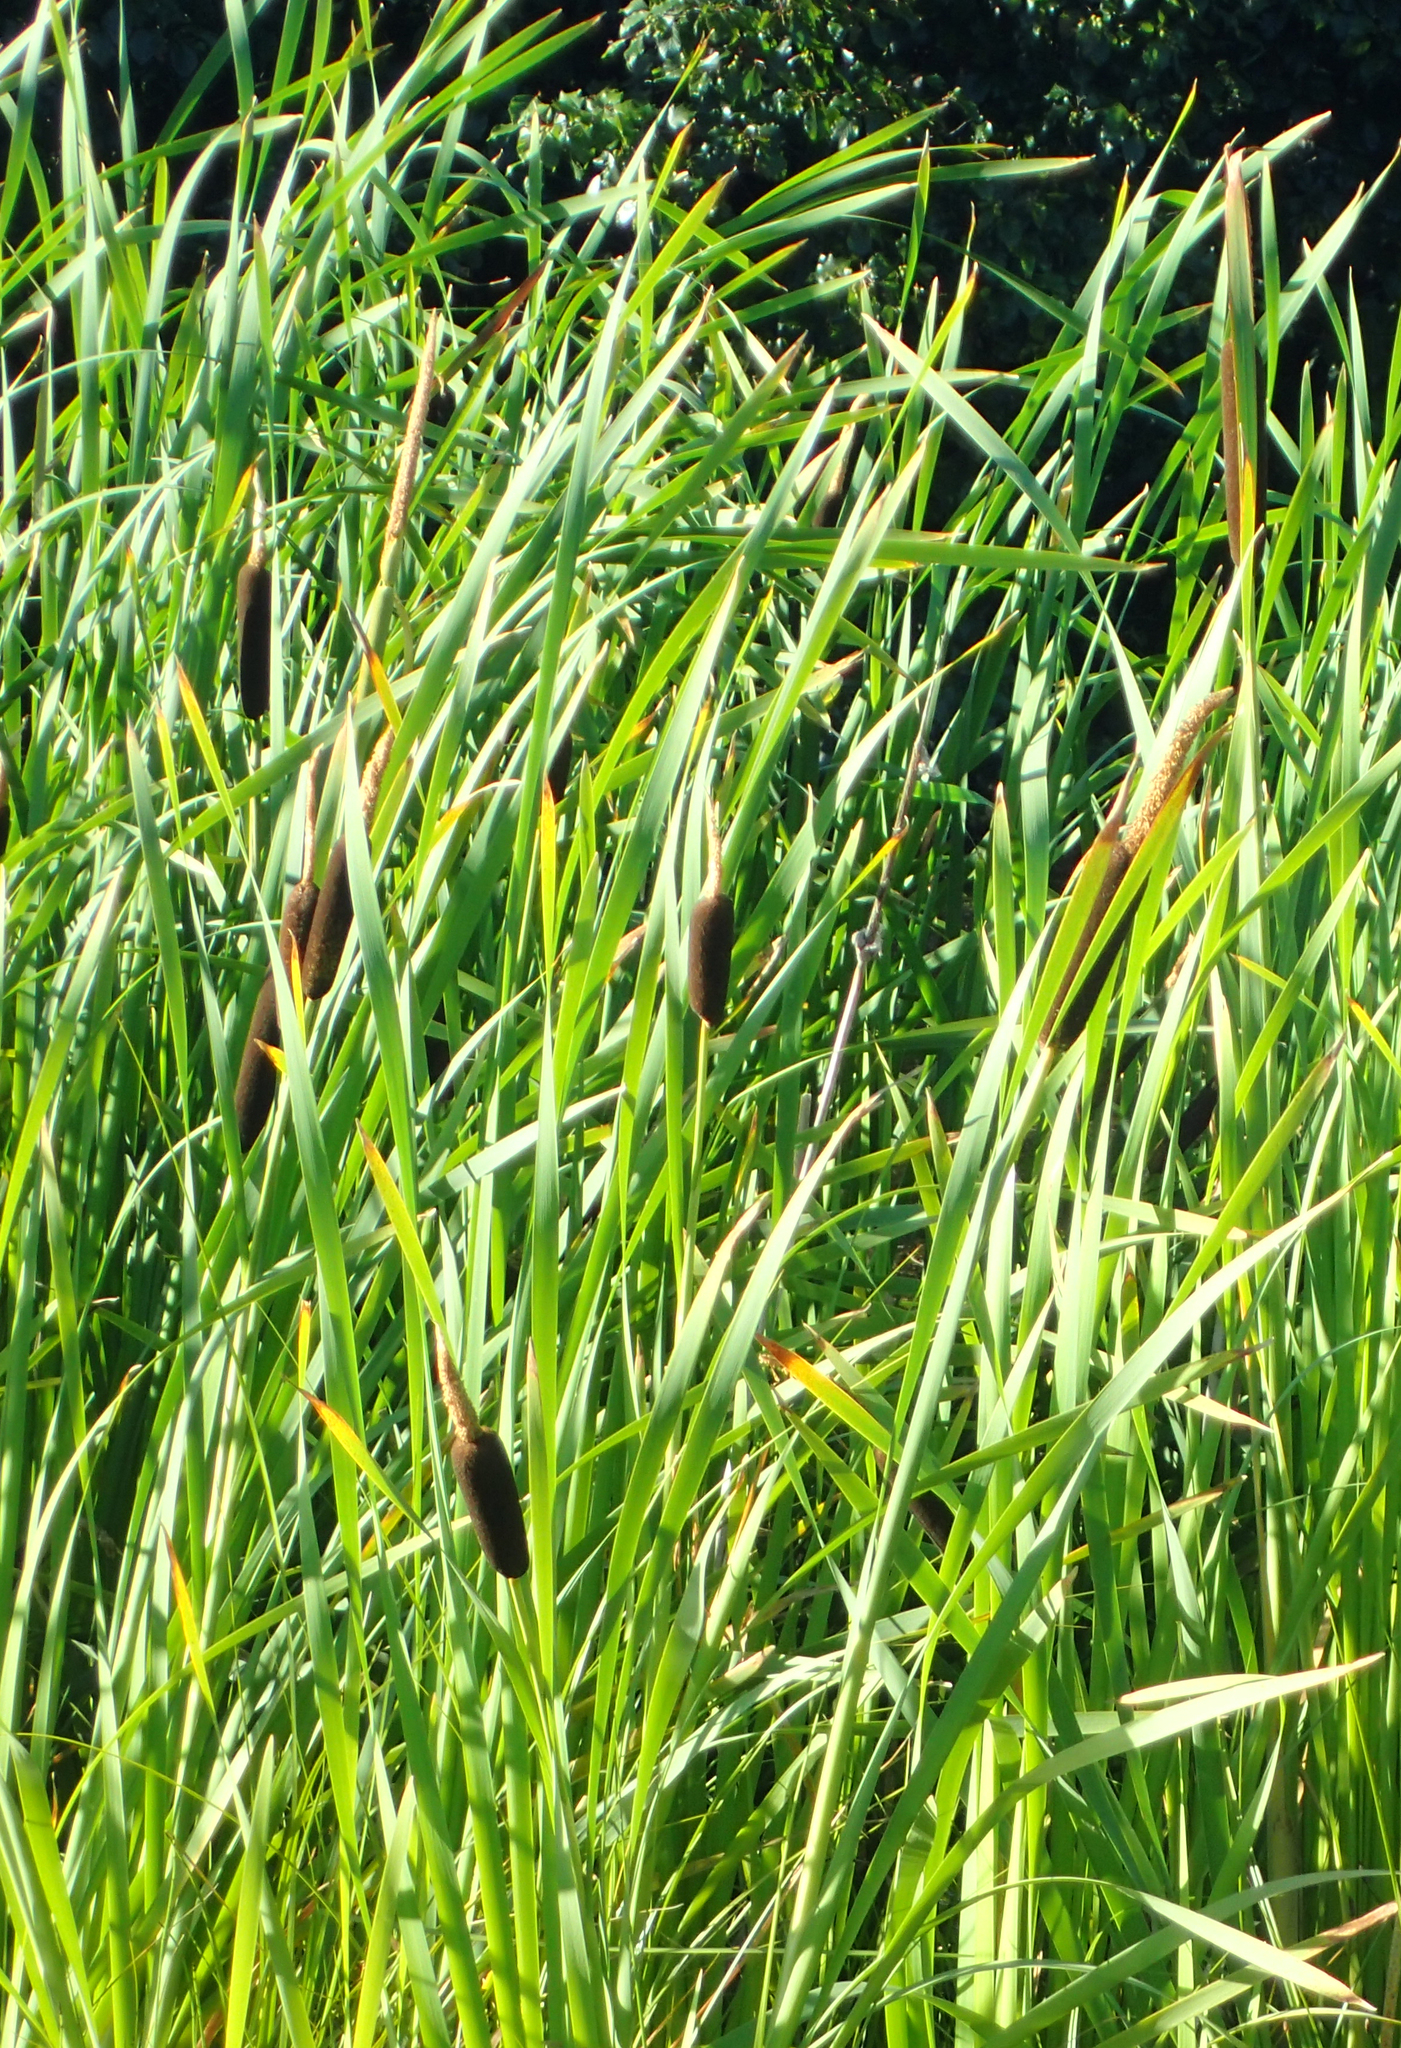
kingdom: Plantae
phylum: Tracheophyta
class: Liliopsida
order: Poales
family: Typhaceae
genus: Typha
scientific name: Typha latifolia
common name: Broadleaf cattail
